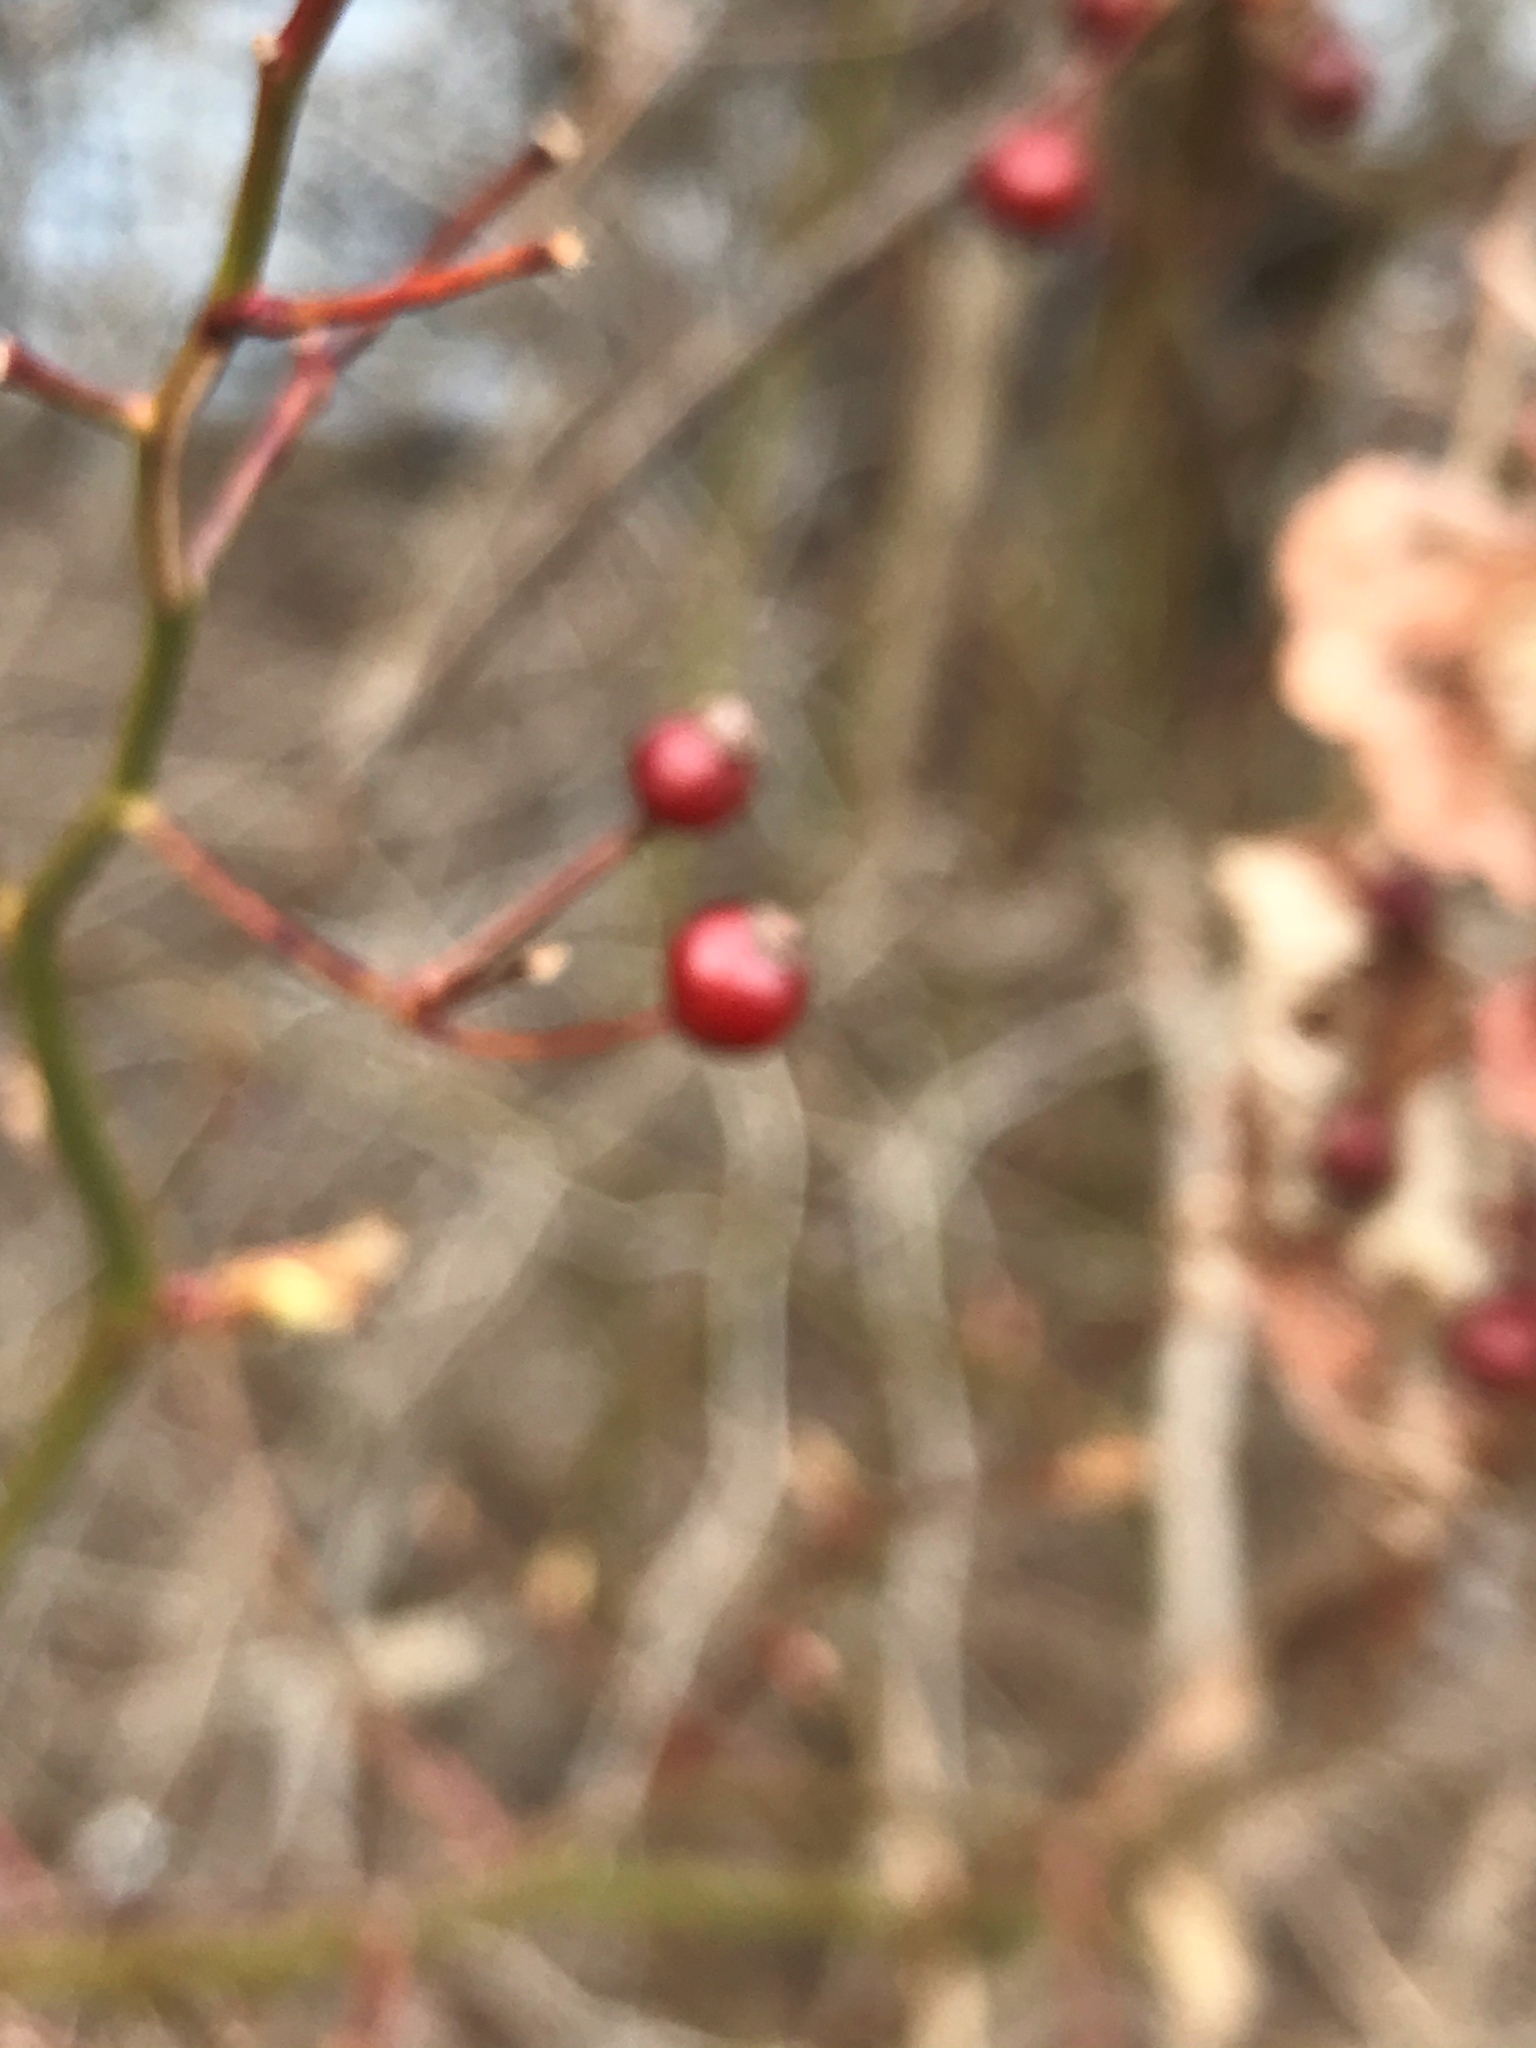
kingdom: Plantae
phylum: Tracheophyta
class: Magnoliopsida
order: Rosales
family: Rosaceae
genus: Rosa
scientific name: Rosa multiflora
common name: Multiflora rose
